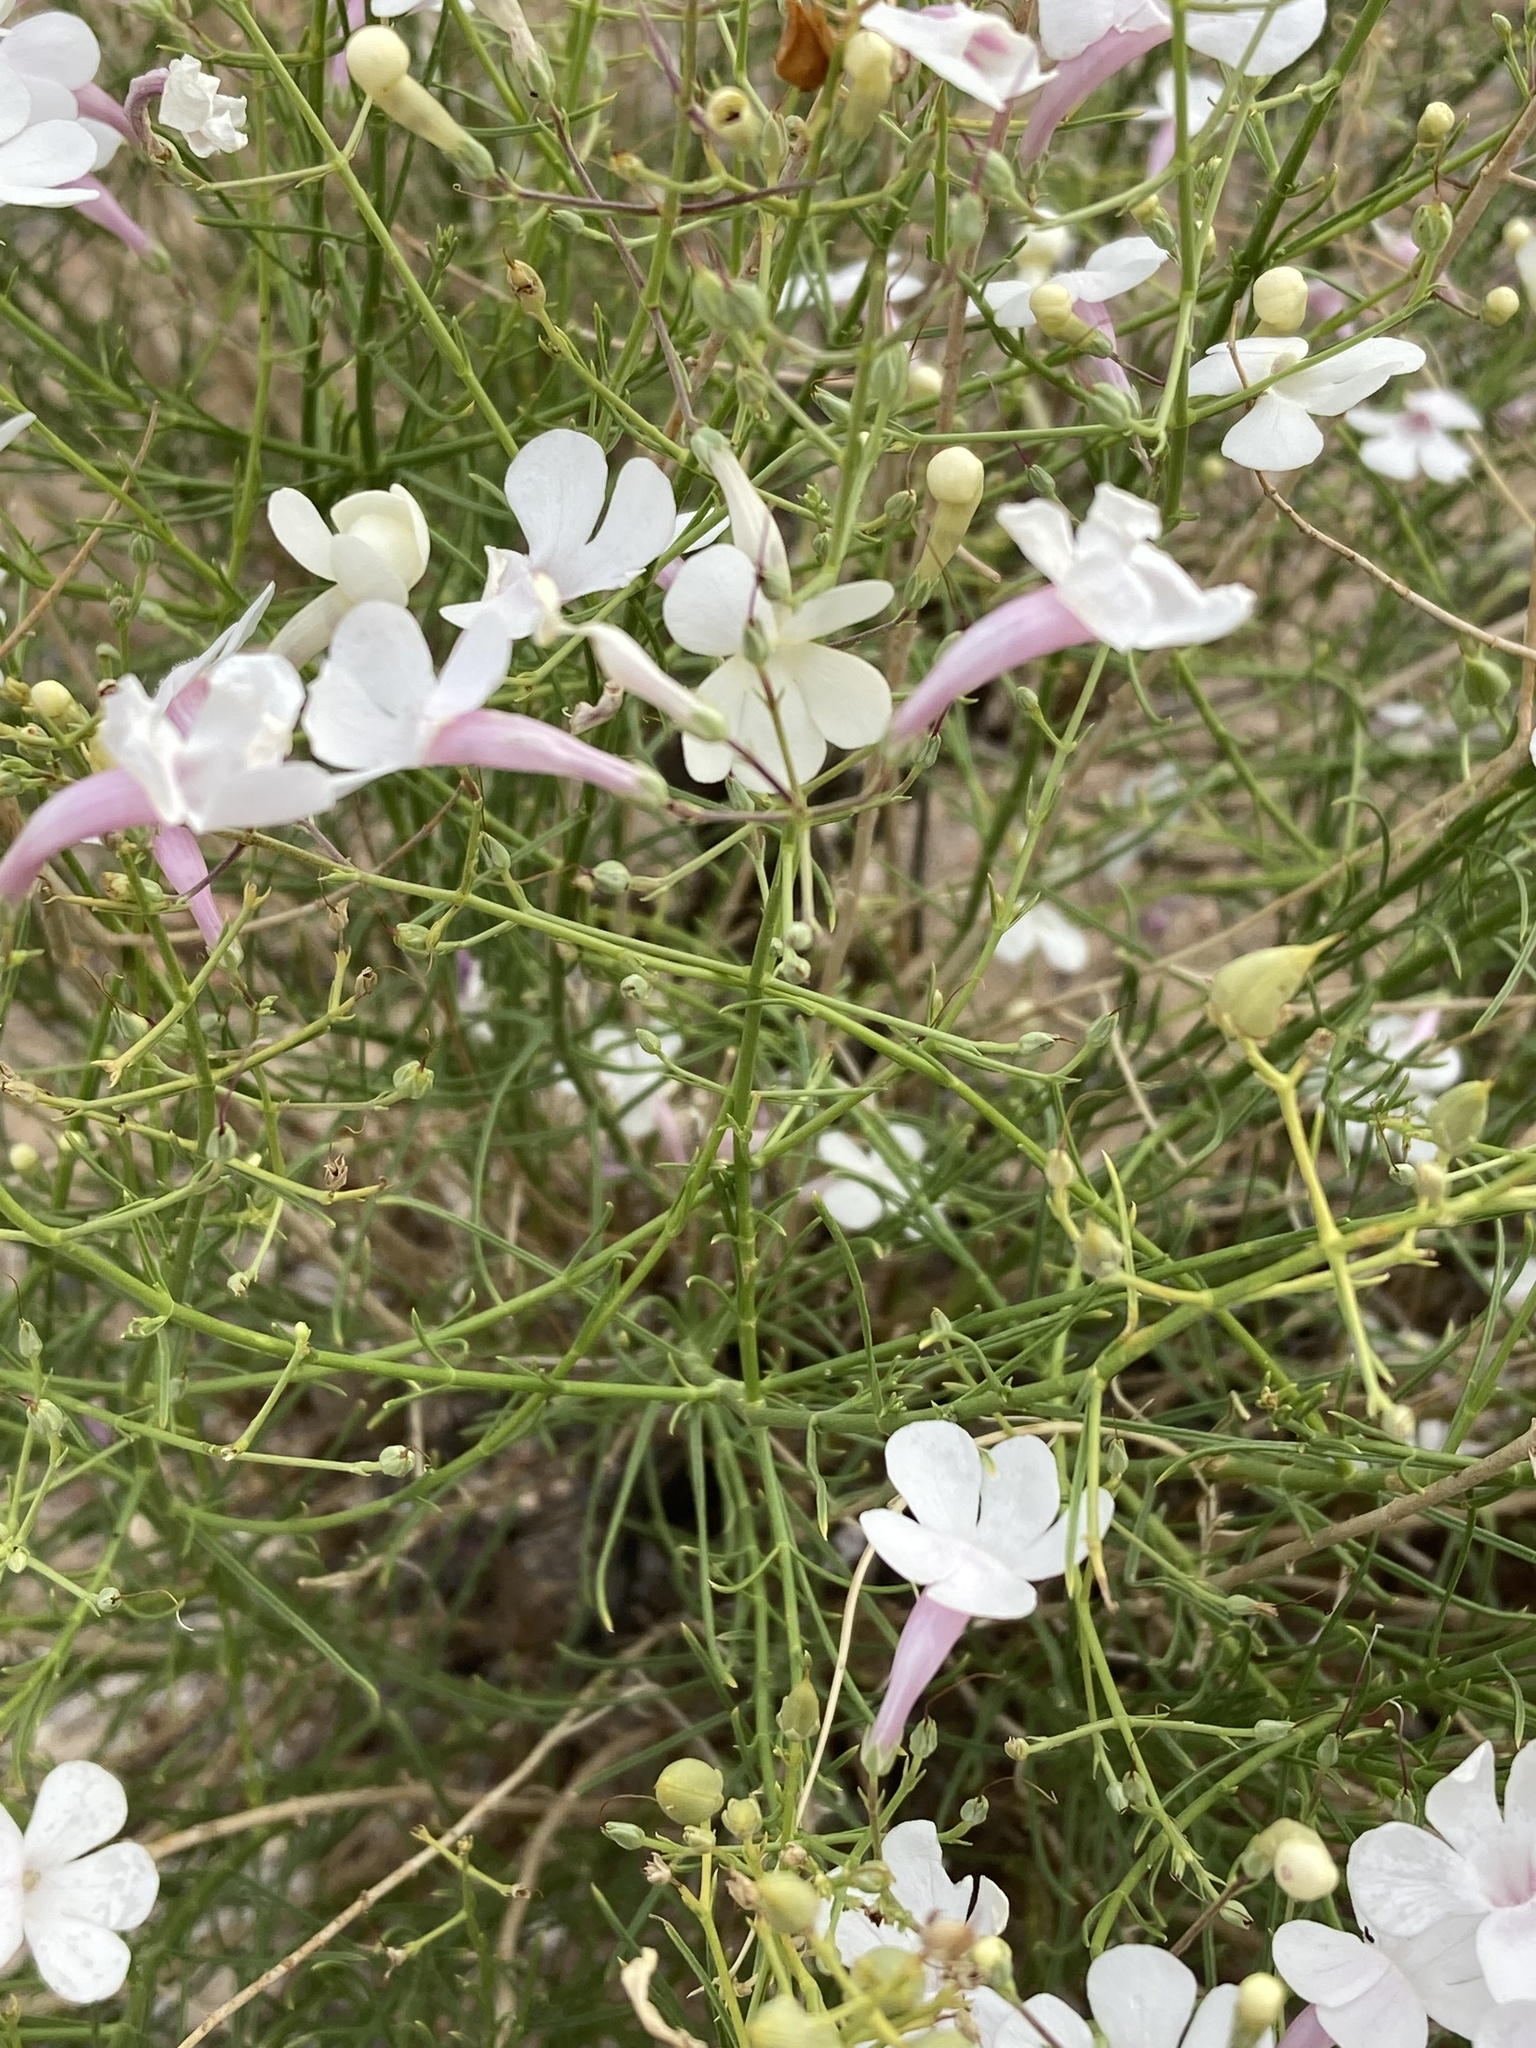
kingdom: Plantae
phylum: Tracheophyta
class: Magnoliopsida
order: Lamiales
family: Plantaginaceae
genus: Penstemon
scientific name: Penstemon ambiguus
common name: Bush penstemon
